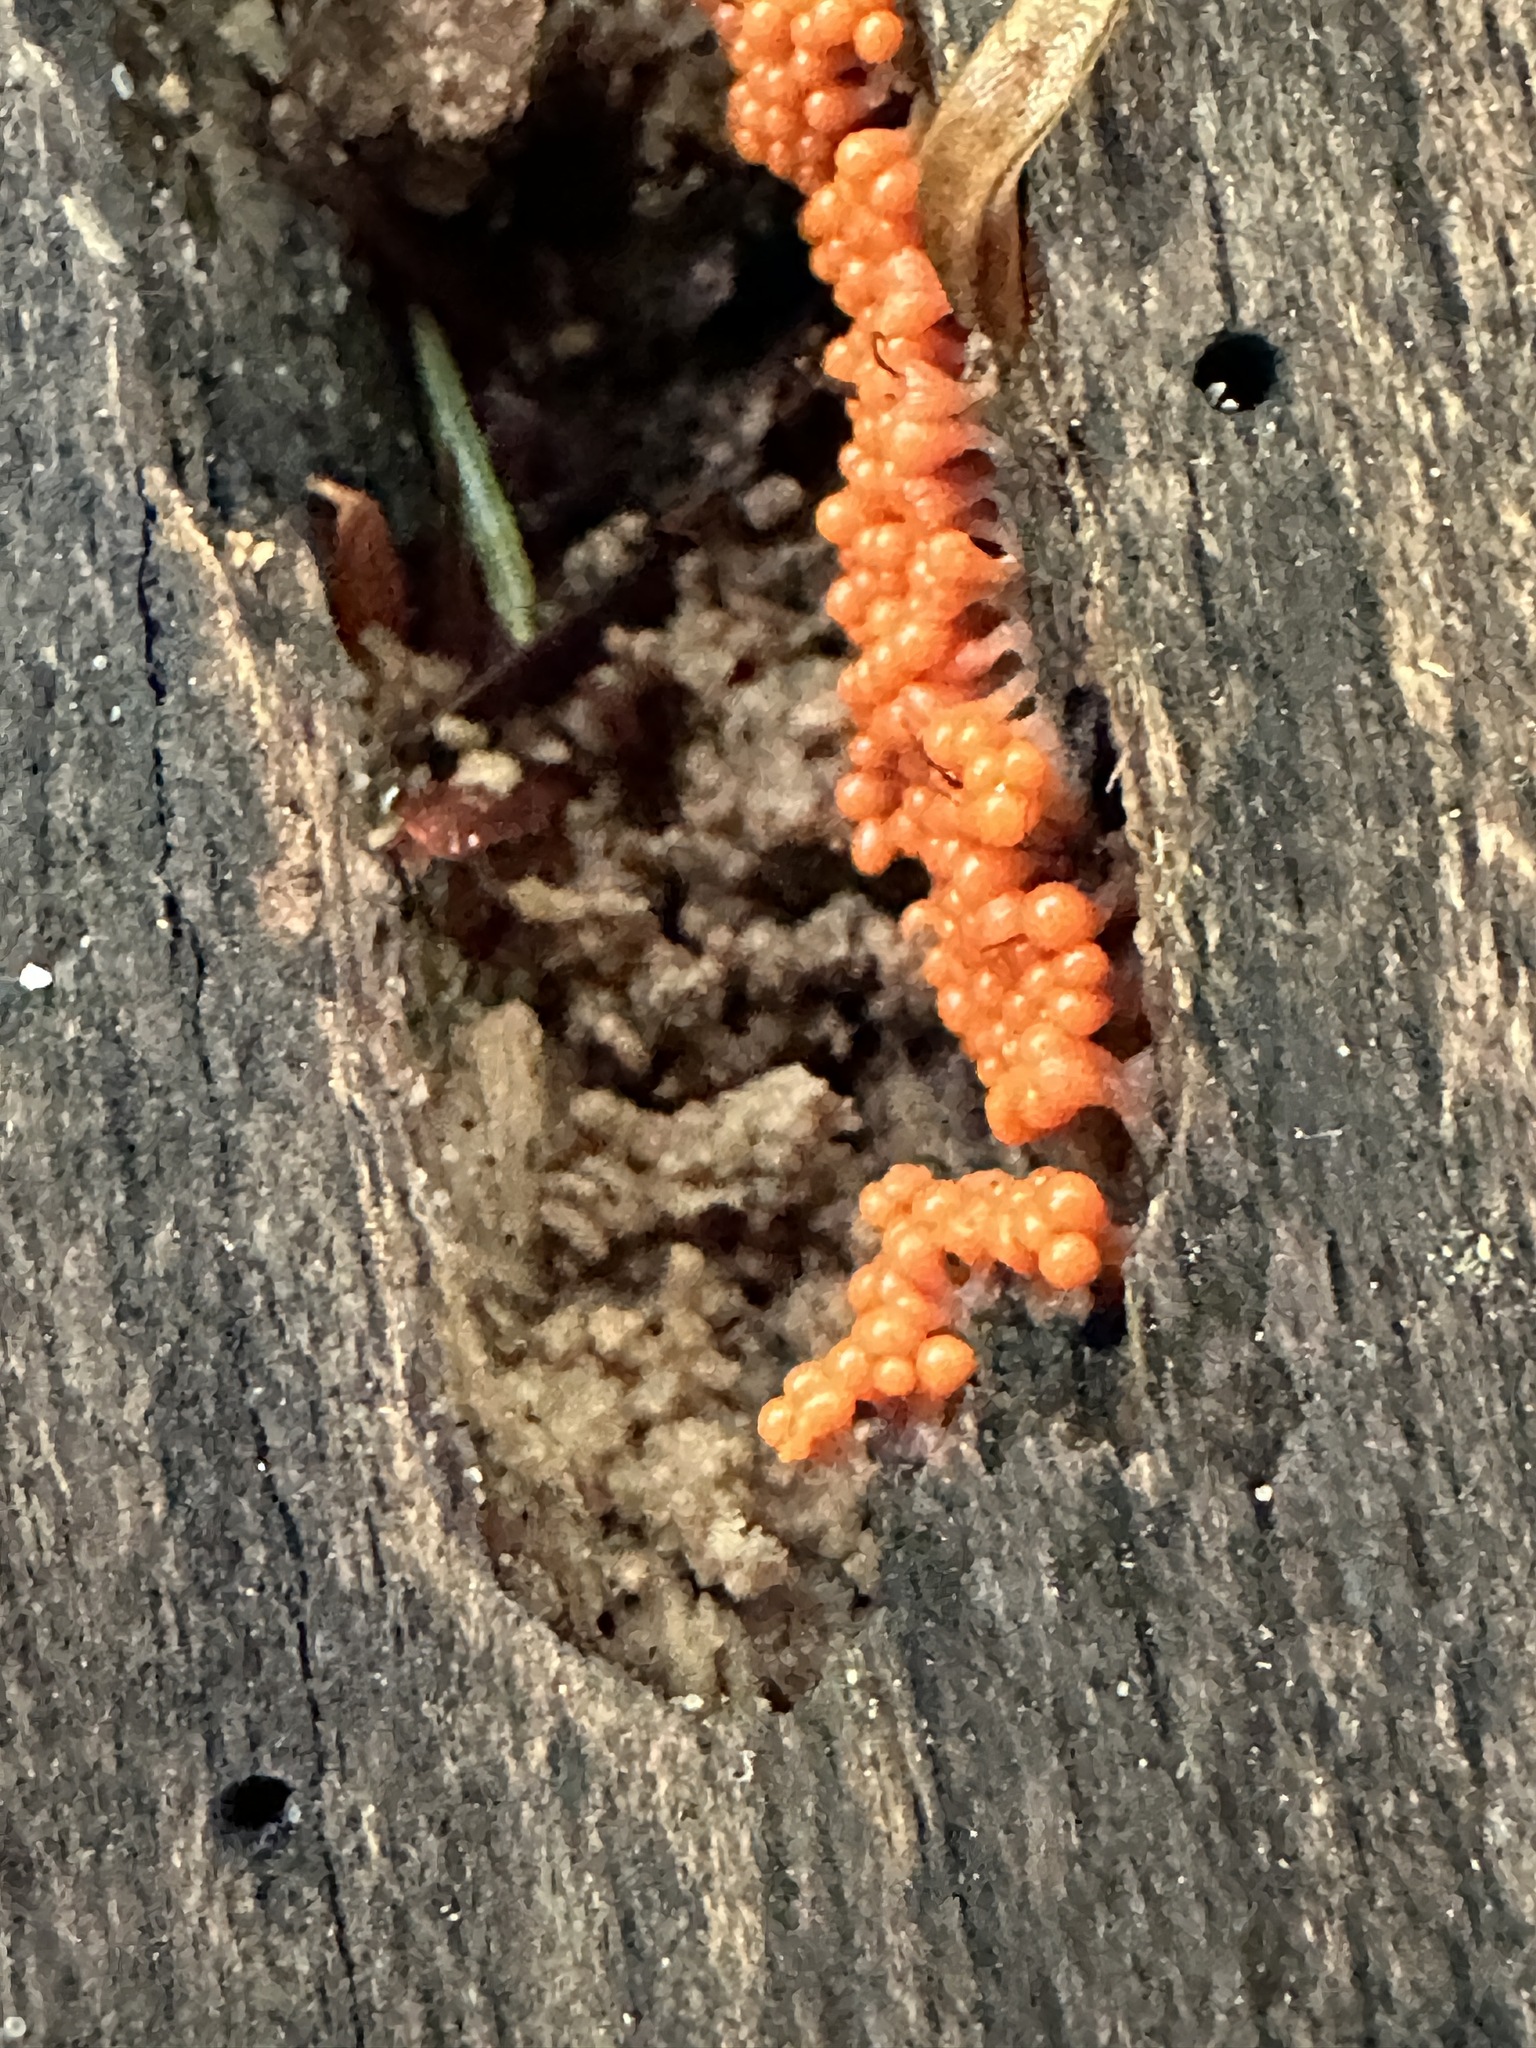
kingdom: Protozoa
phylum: Mycetozoa
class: Myxomycetes
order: Trichiales
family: Arcyriaceae
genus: Hemitrichia
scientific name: Hemitrichia decipiens
